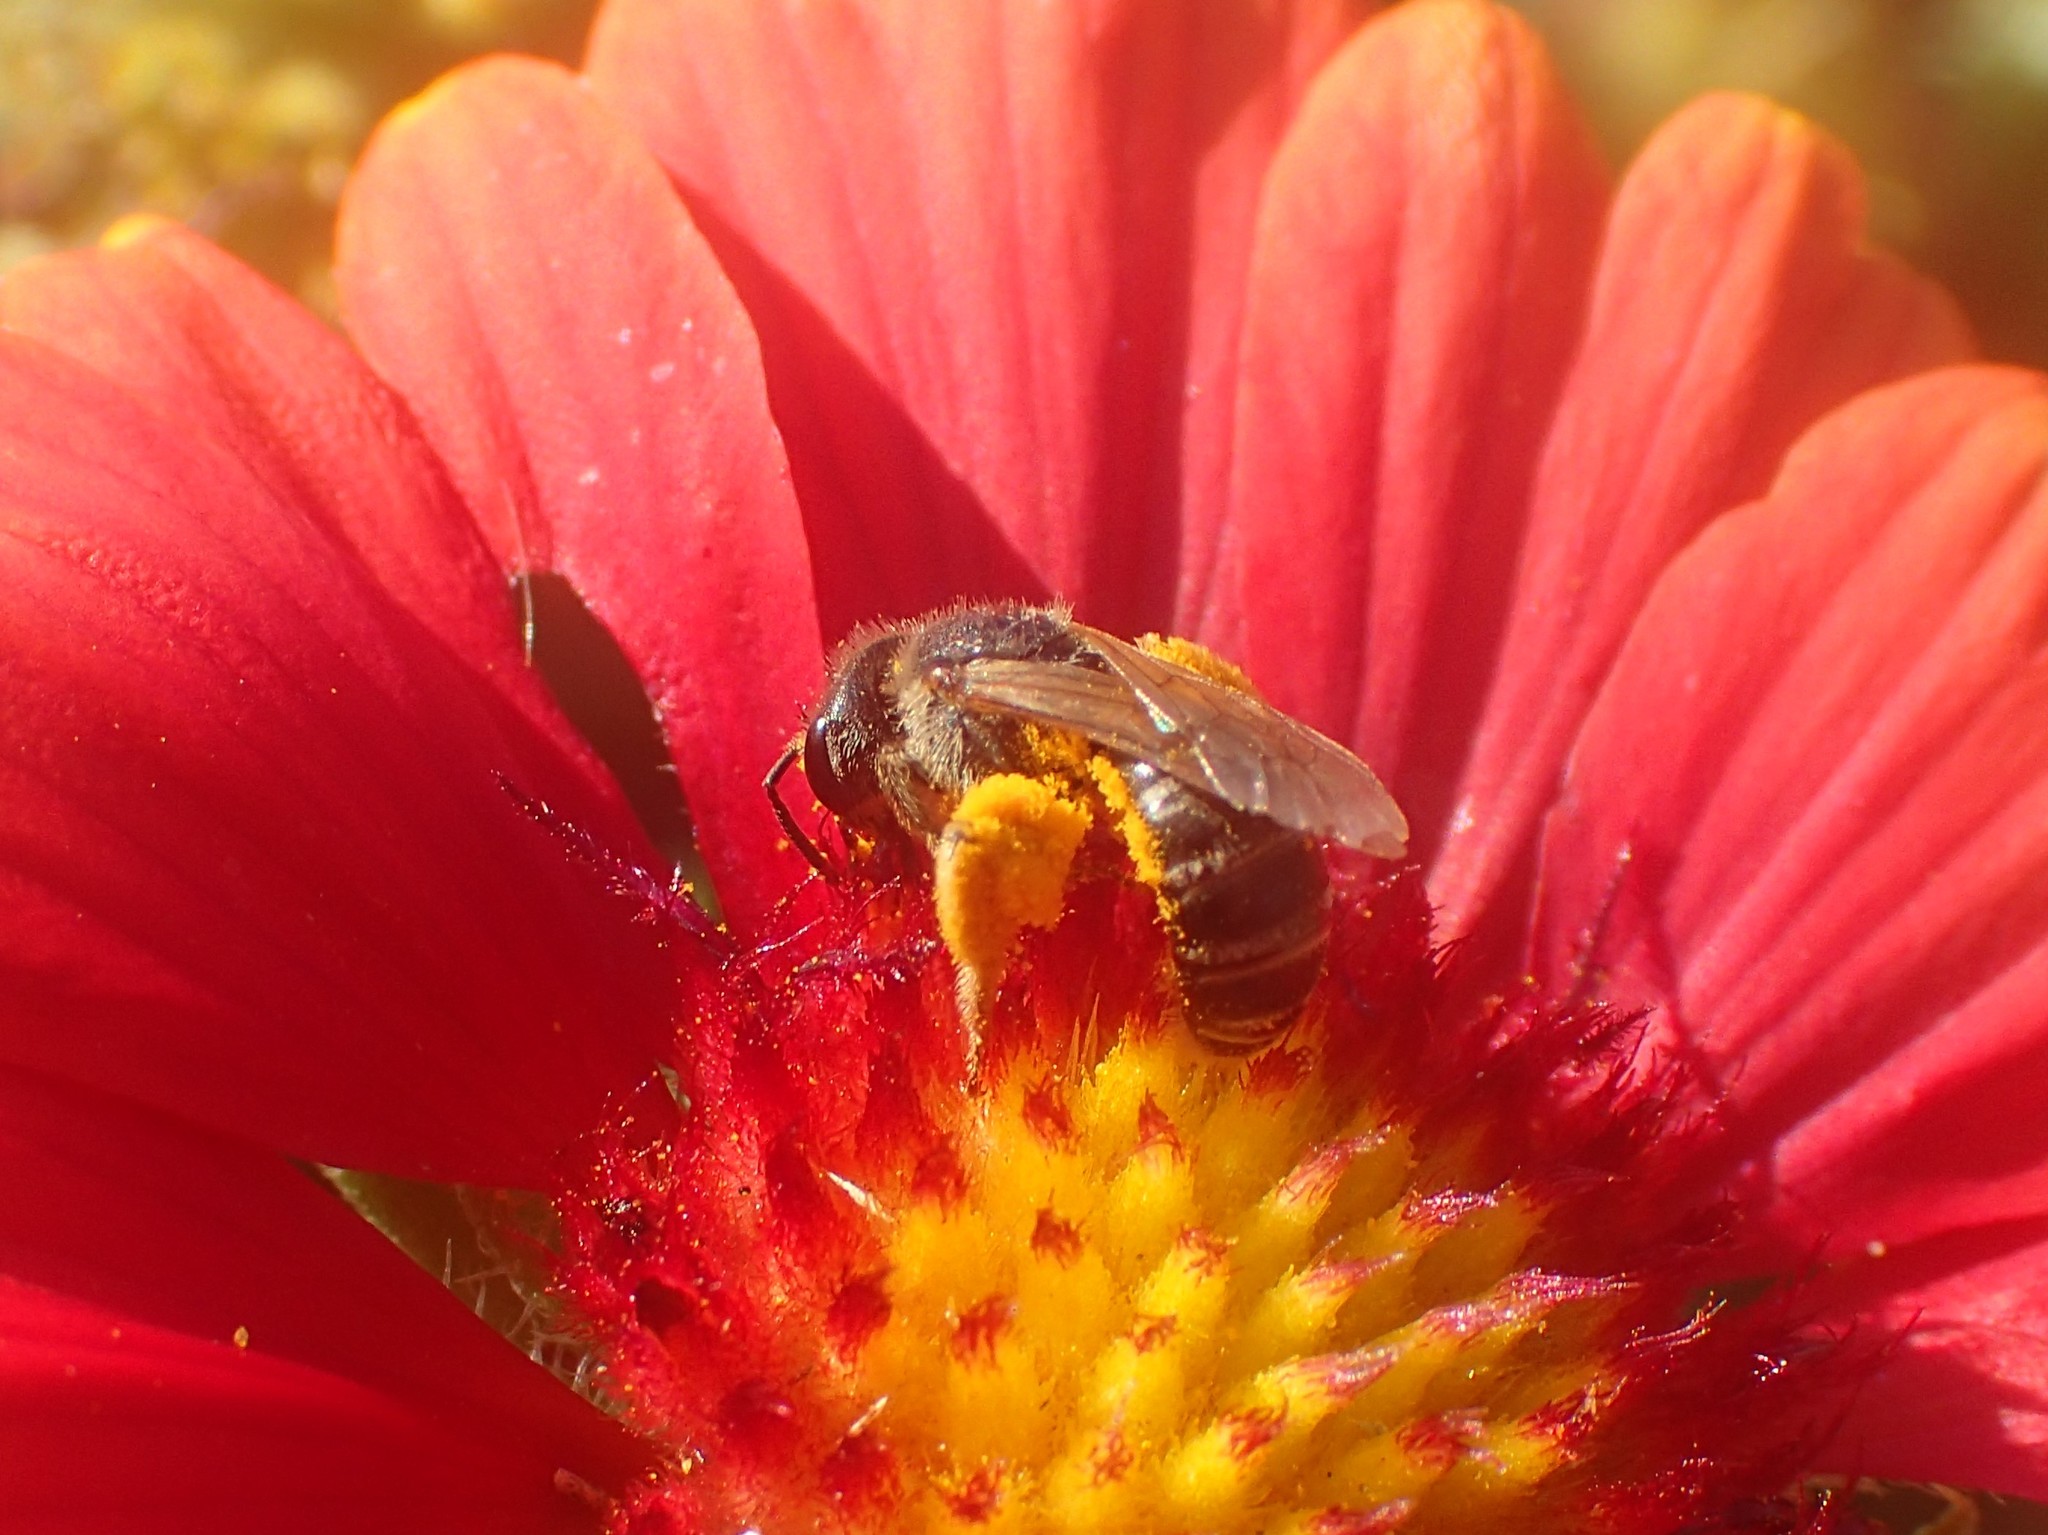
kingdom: Animalia
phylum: Arthropoda
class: Insecta
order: Hymenoptera
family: Halictidae
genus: Halictus
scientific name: Halictus ligatus
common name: Ligated furrow bee
